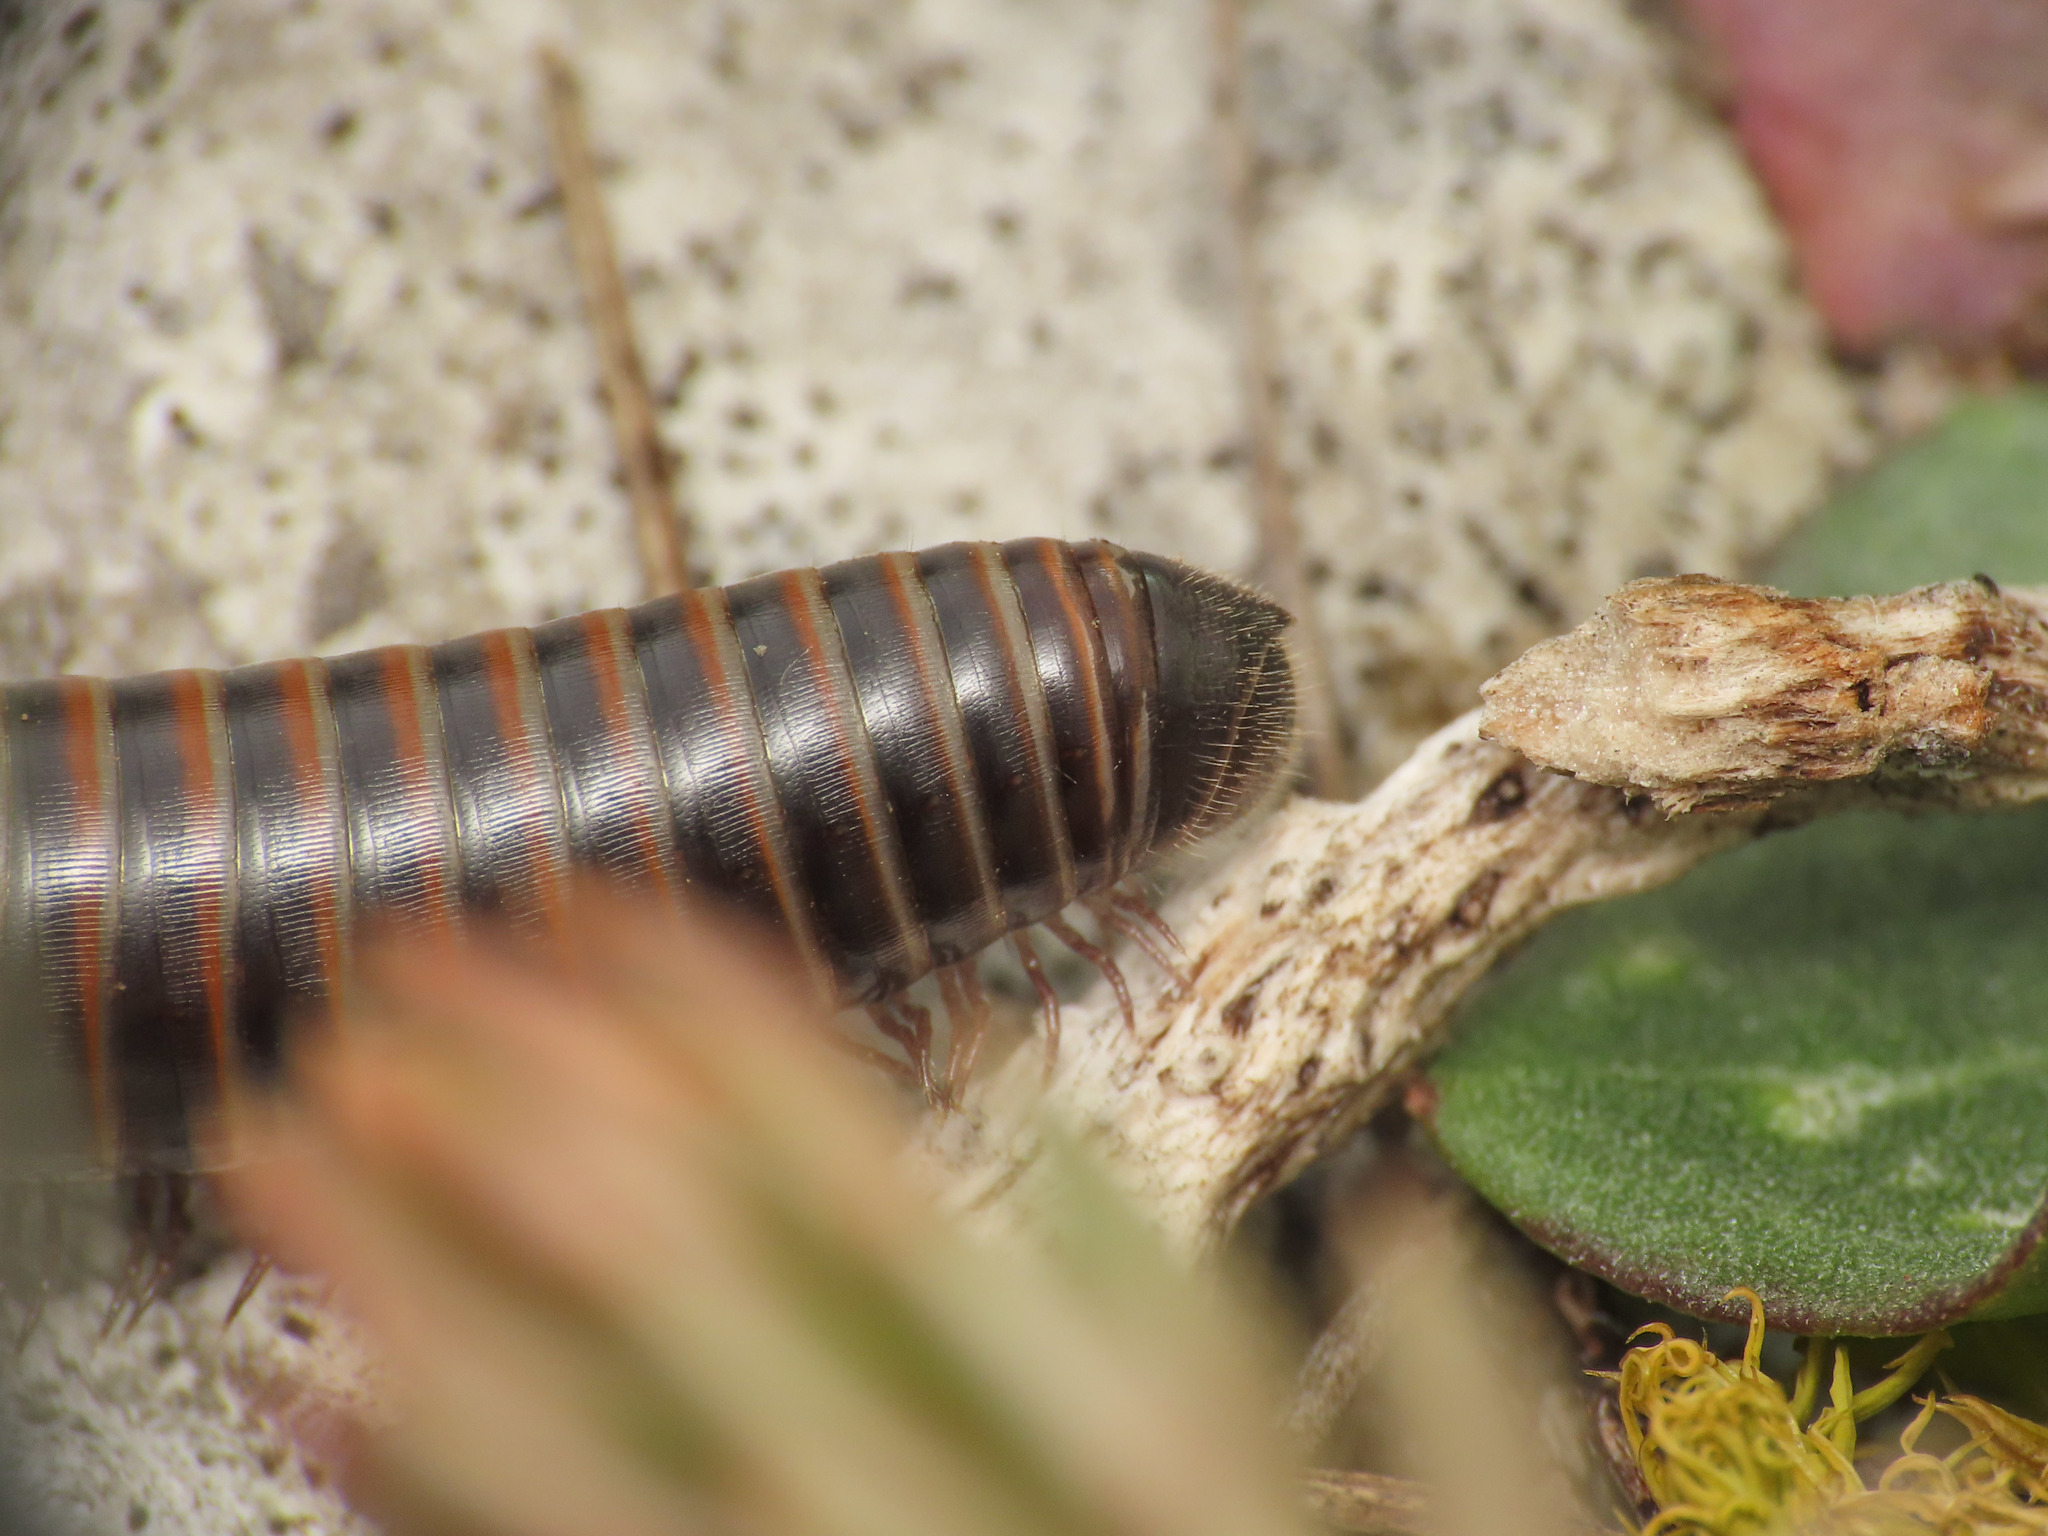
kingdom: Animalia
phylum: Arthropoda
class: Diplopoda
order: Julida
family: Julidae
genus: Acanthoiulus
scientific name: Acanthoiulus cassinensis
